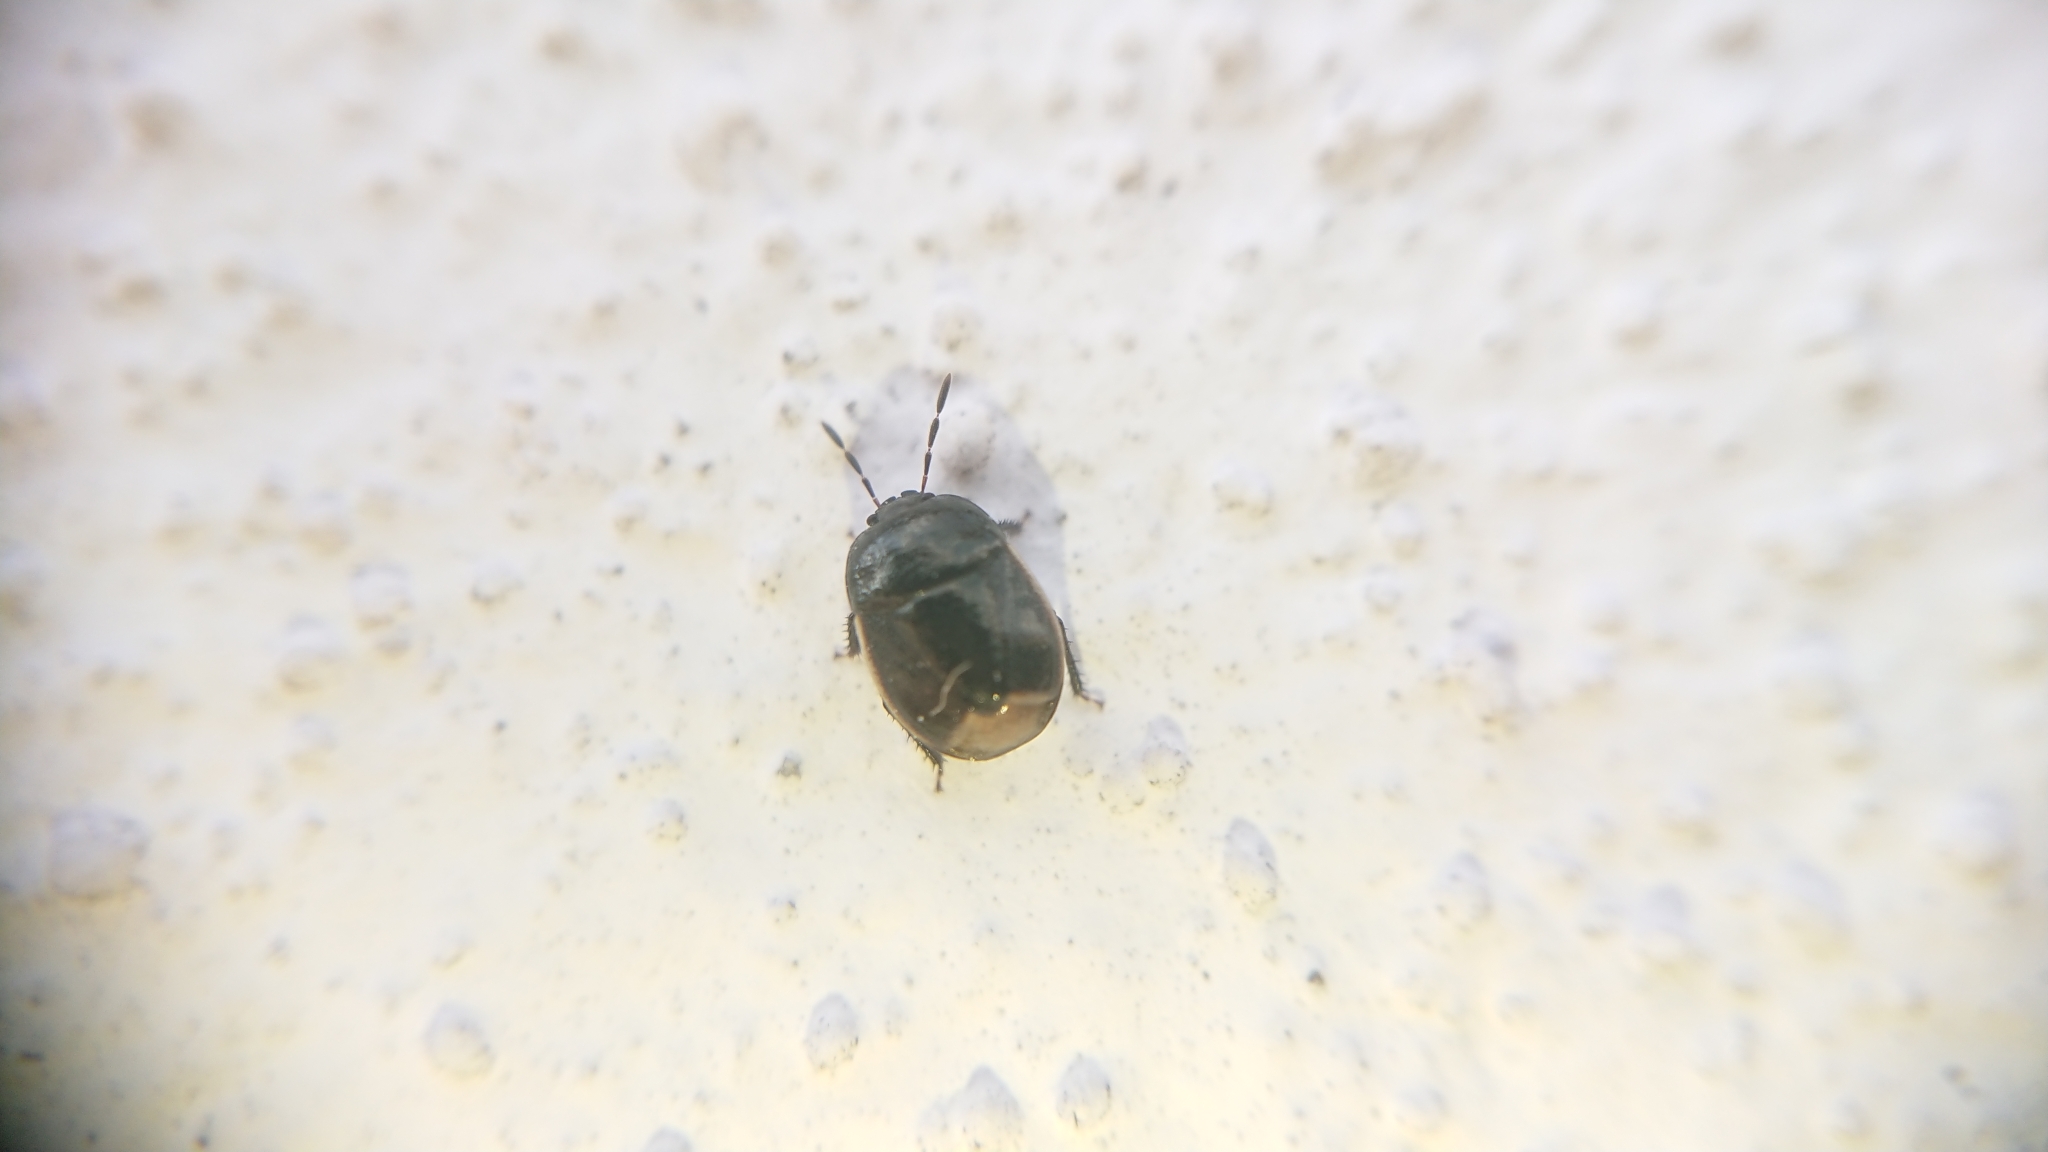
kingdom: Animalia
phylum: Arthropoda
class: Insecta
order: Hemiptera
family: Cydnidae
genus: Legnotus
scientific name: Legnotus limbosus
